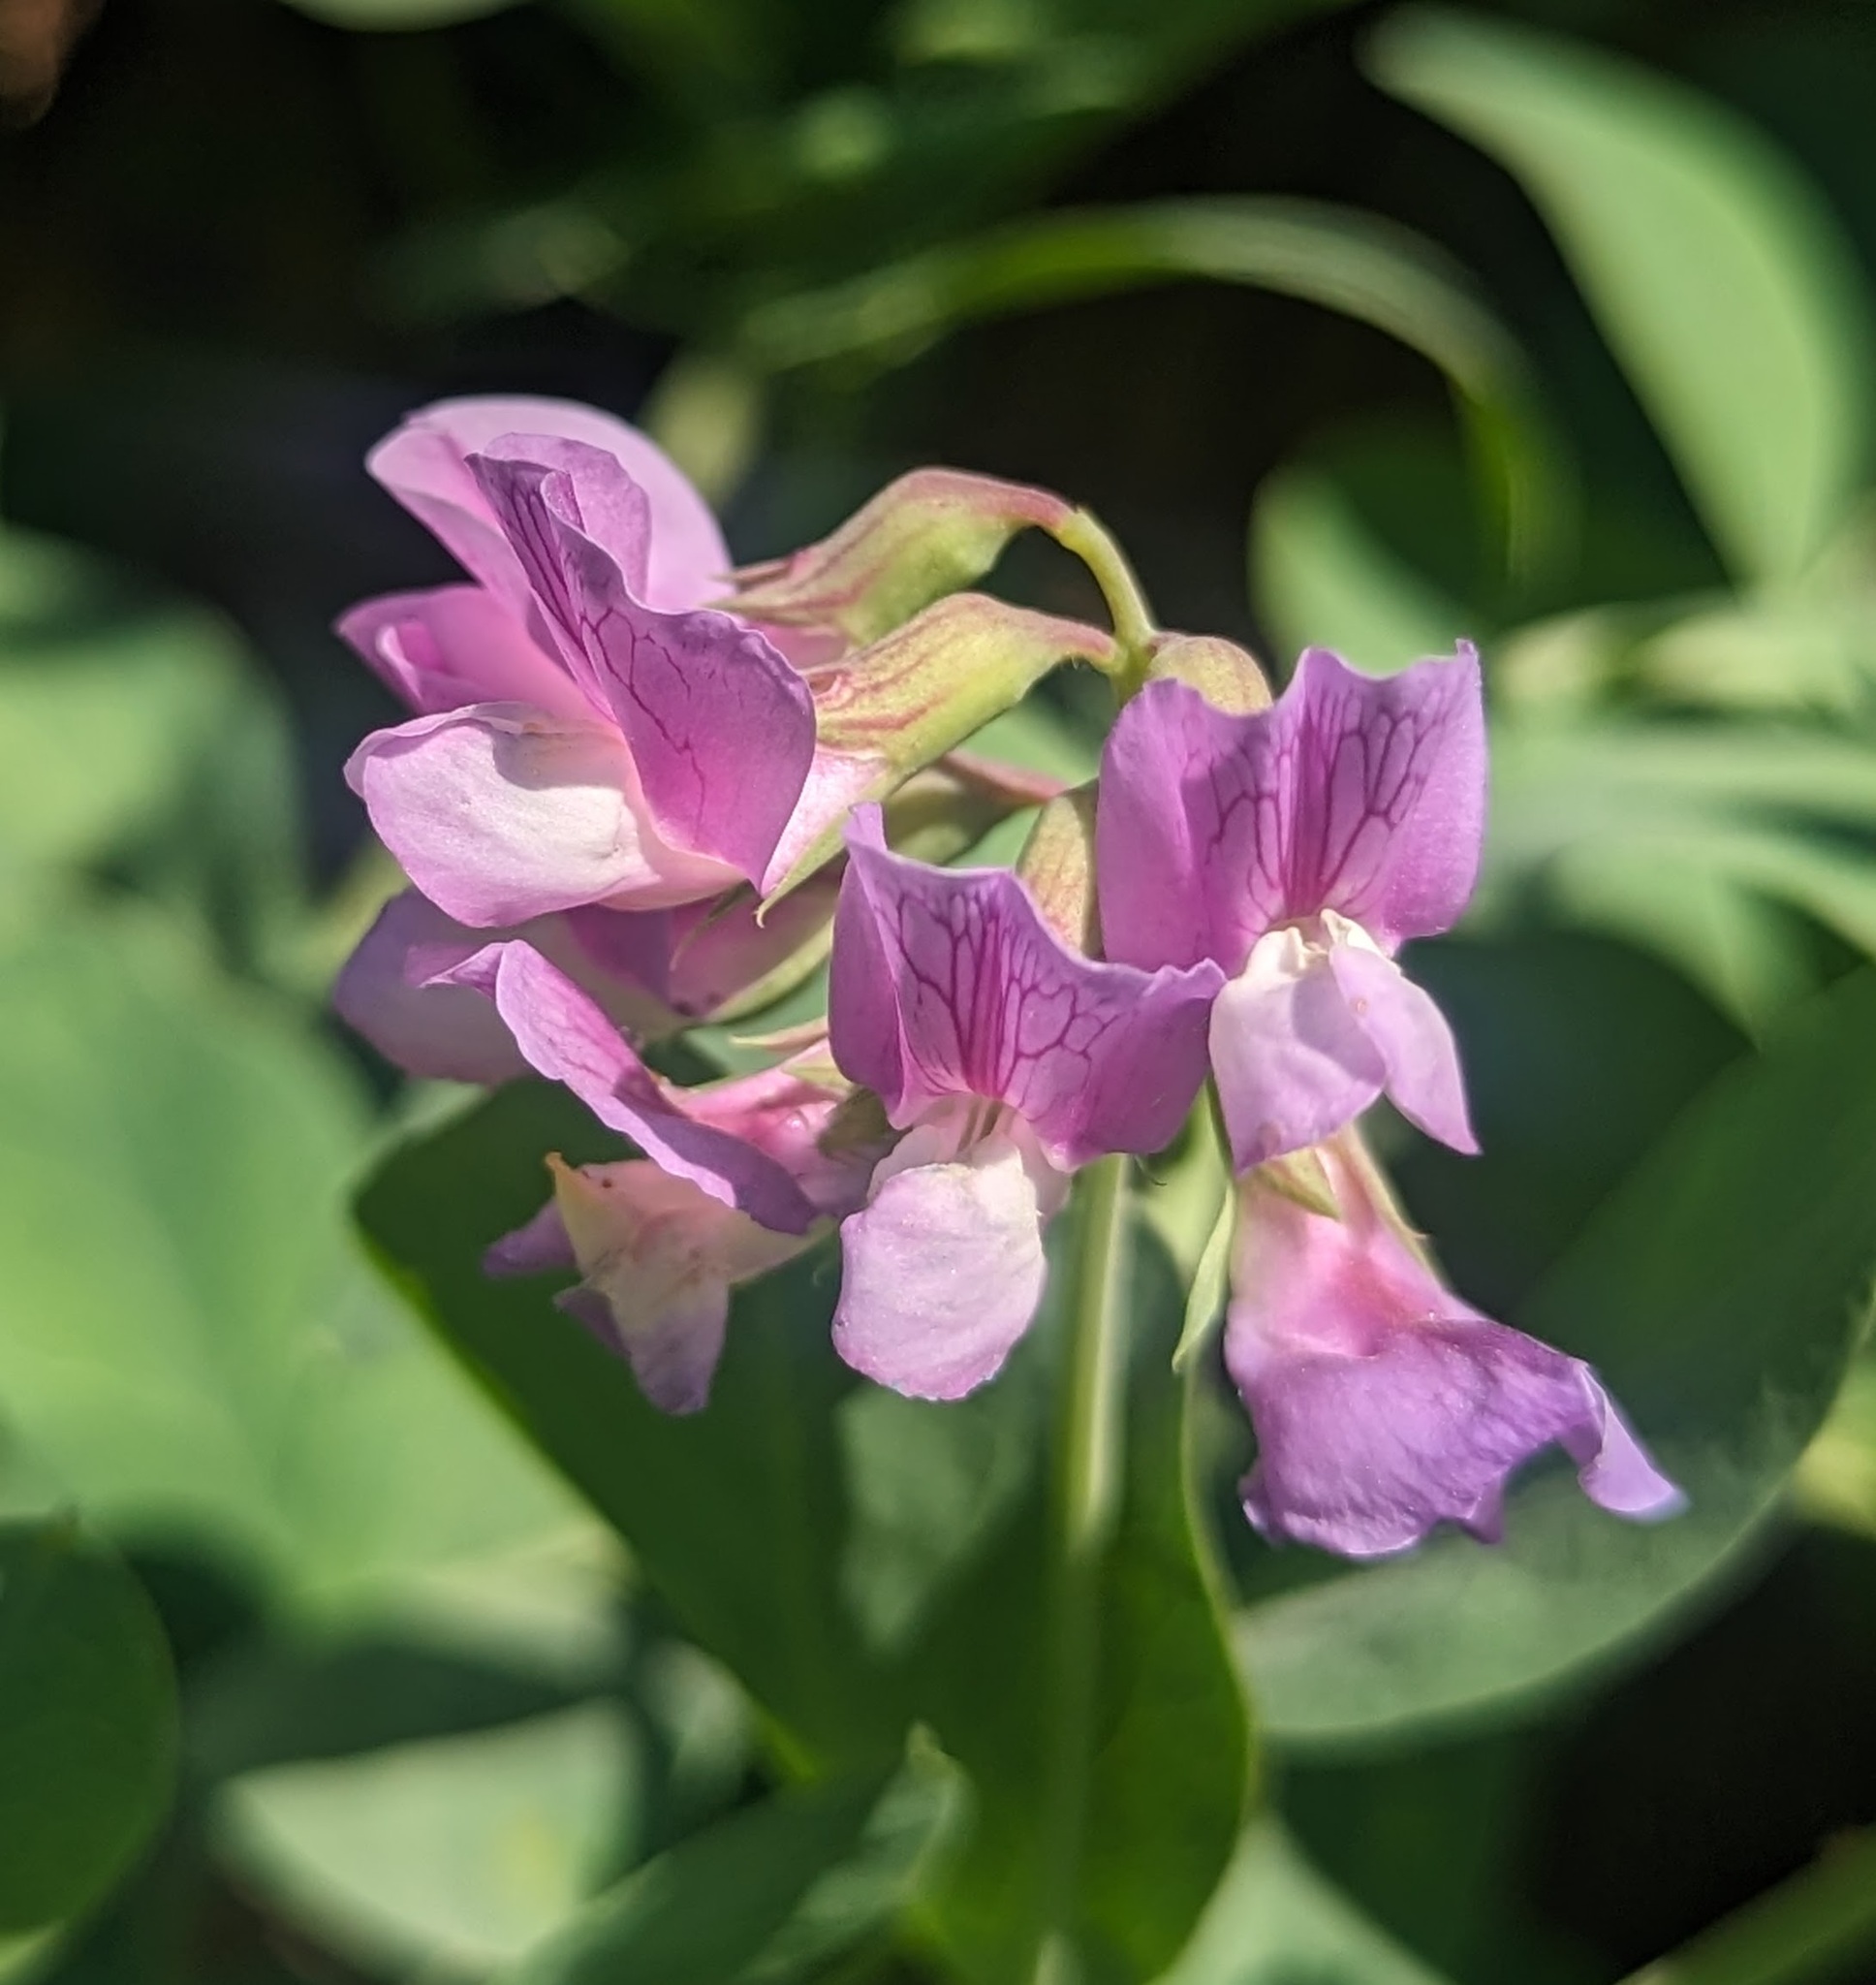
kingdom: Plantae
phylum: Tracheophyta
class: Magnoliopsida
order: Fabales
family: Fabaceae
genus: Lathyrus
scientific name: Lathyrus japonicus
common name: Sea pea
